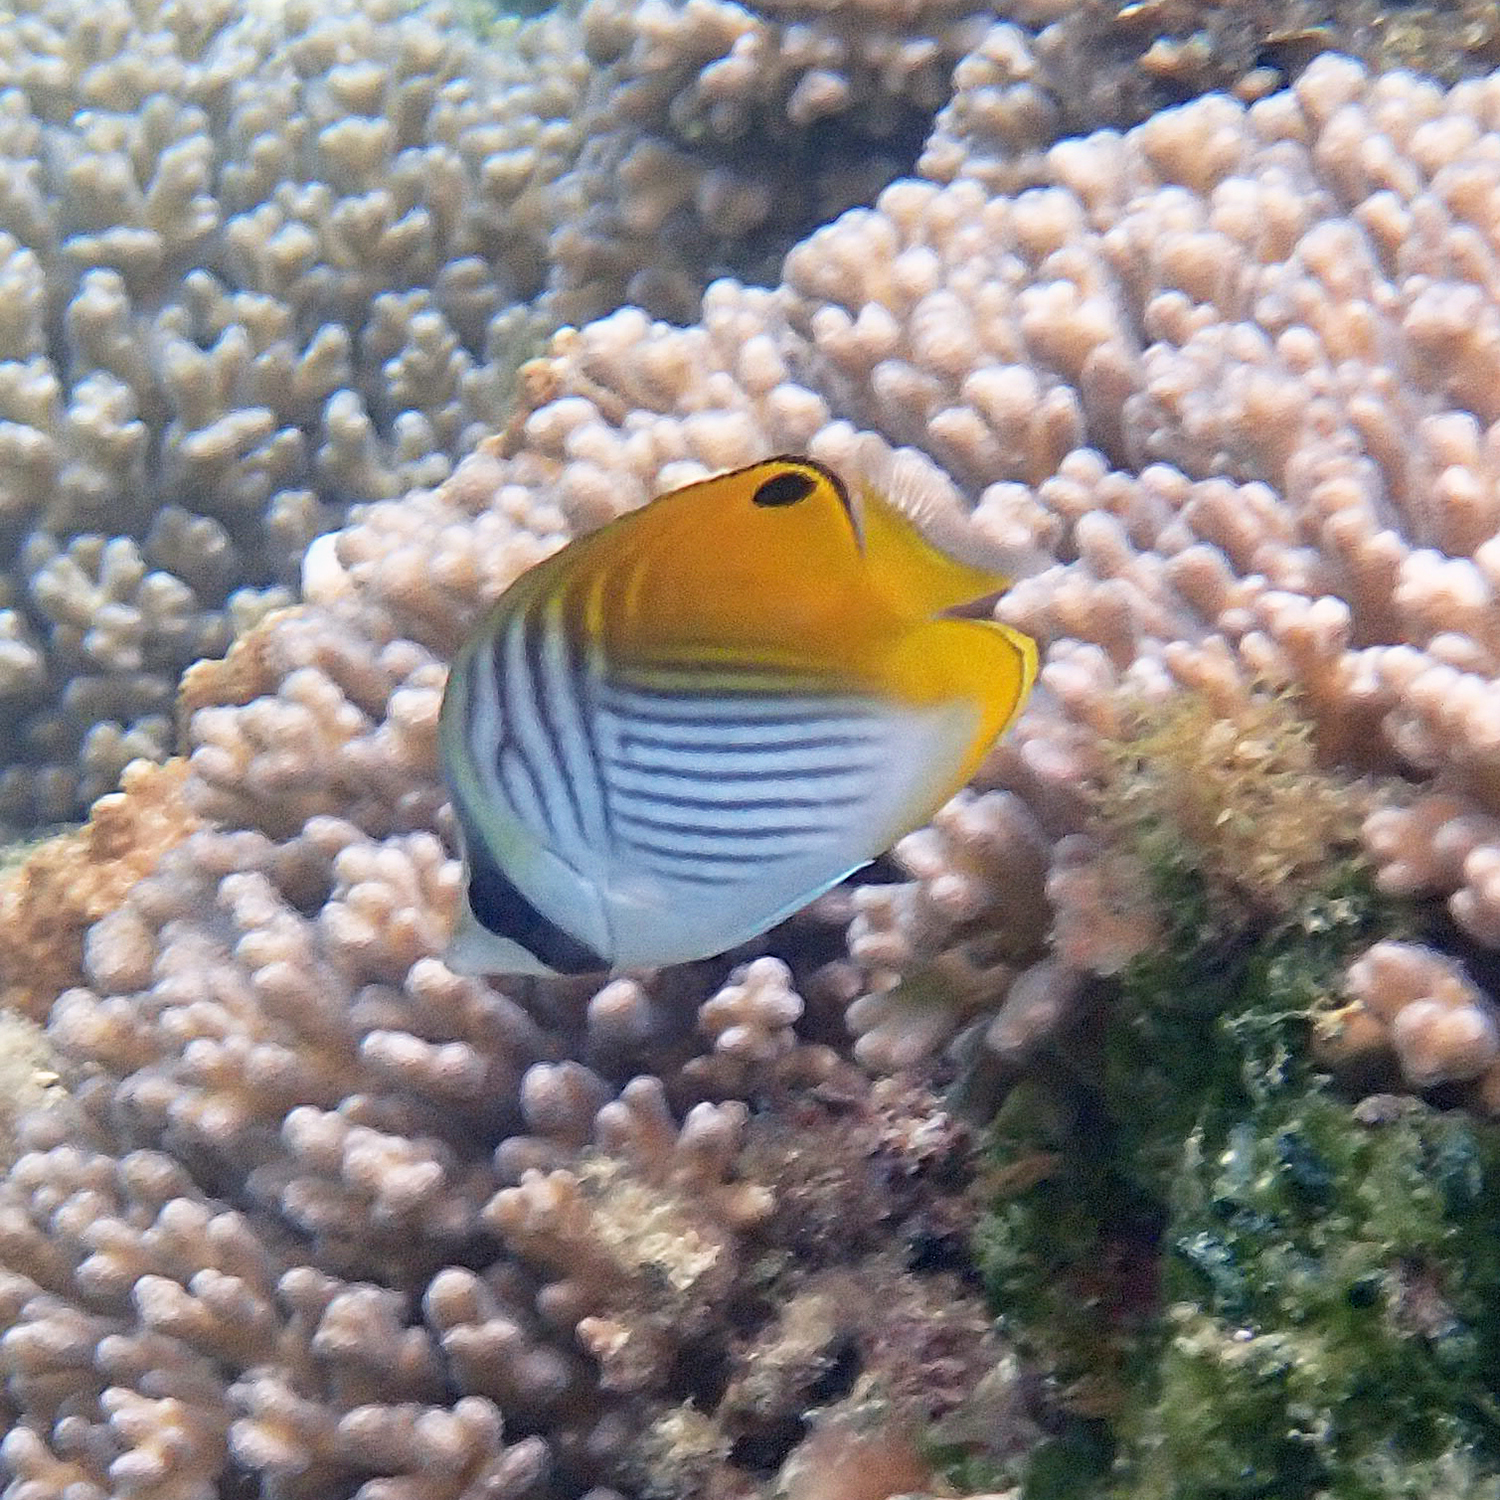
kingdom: Animalia
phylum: Chordata
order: Perciformes
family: Chaetodontidae
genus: Chaetodon
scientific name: Chaetodon auriga
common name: Threadfin butterflyfish
